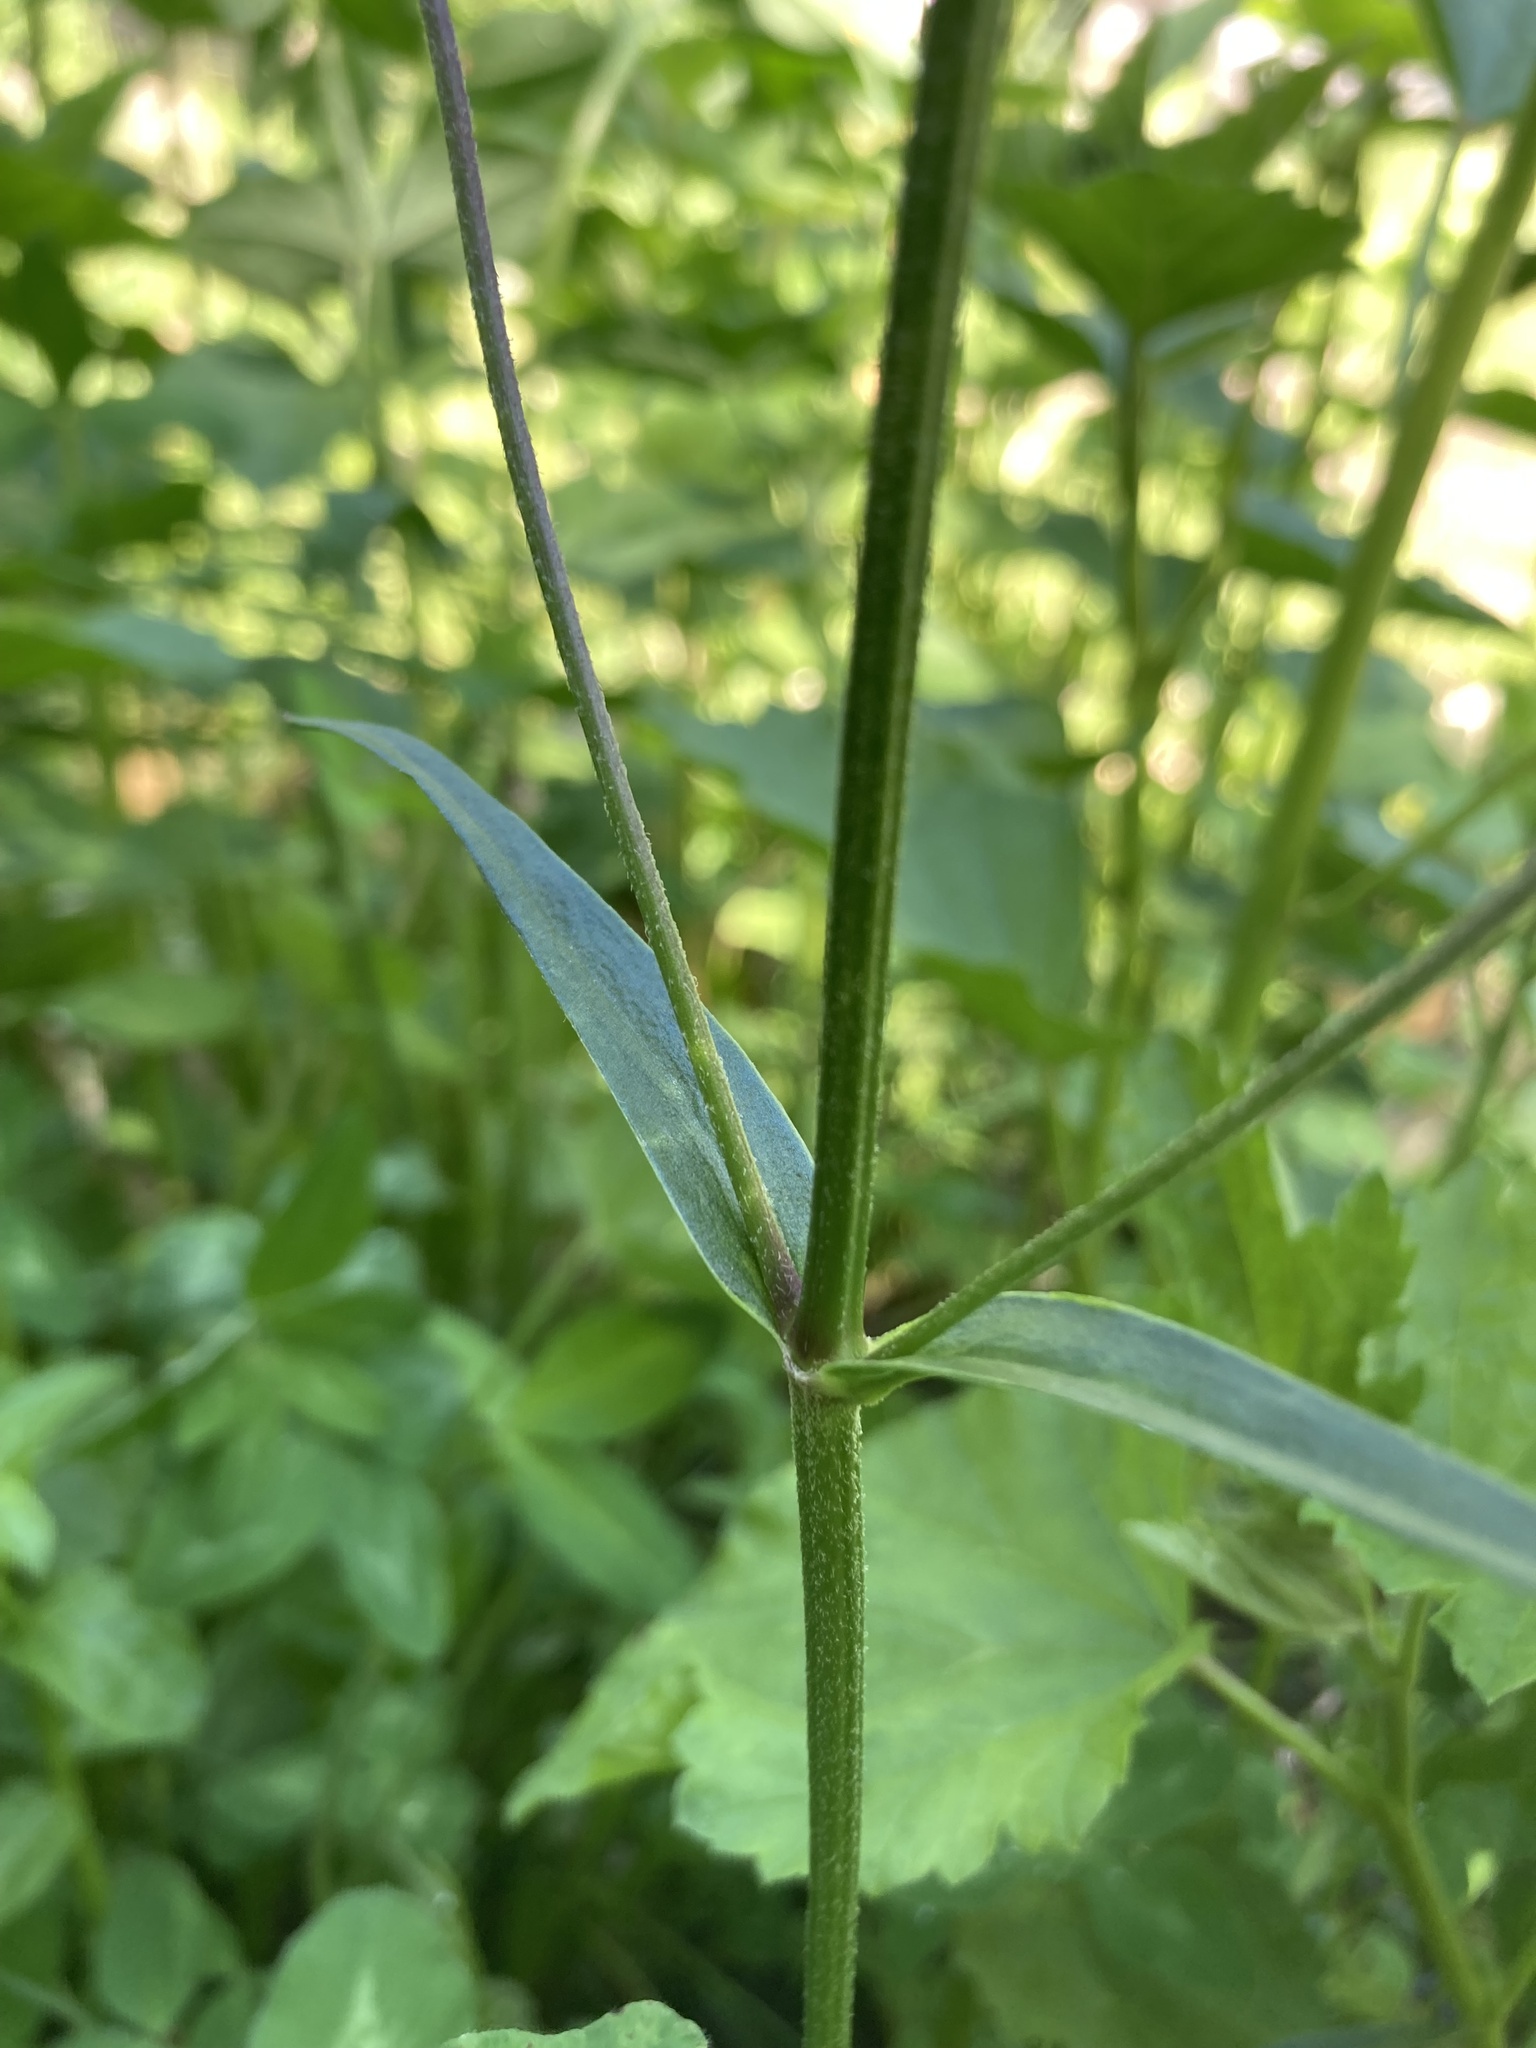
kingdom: Plantae
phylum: Tracheophyta
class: Magnoliopsida
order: Caryophyllales
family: Caryophyllaceae
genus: Silene
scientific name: Silene flos-cuculi
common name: Ragged-robin
